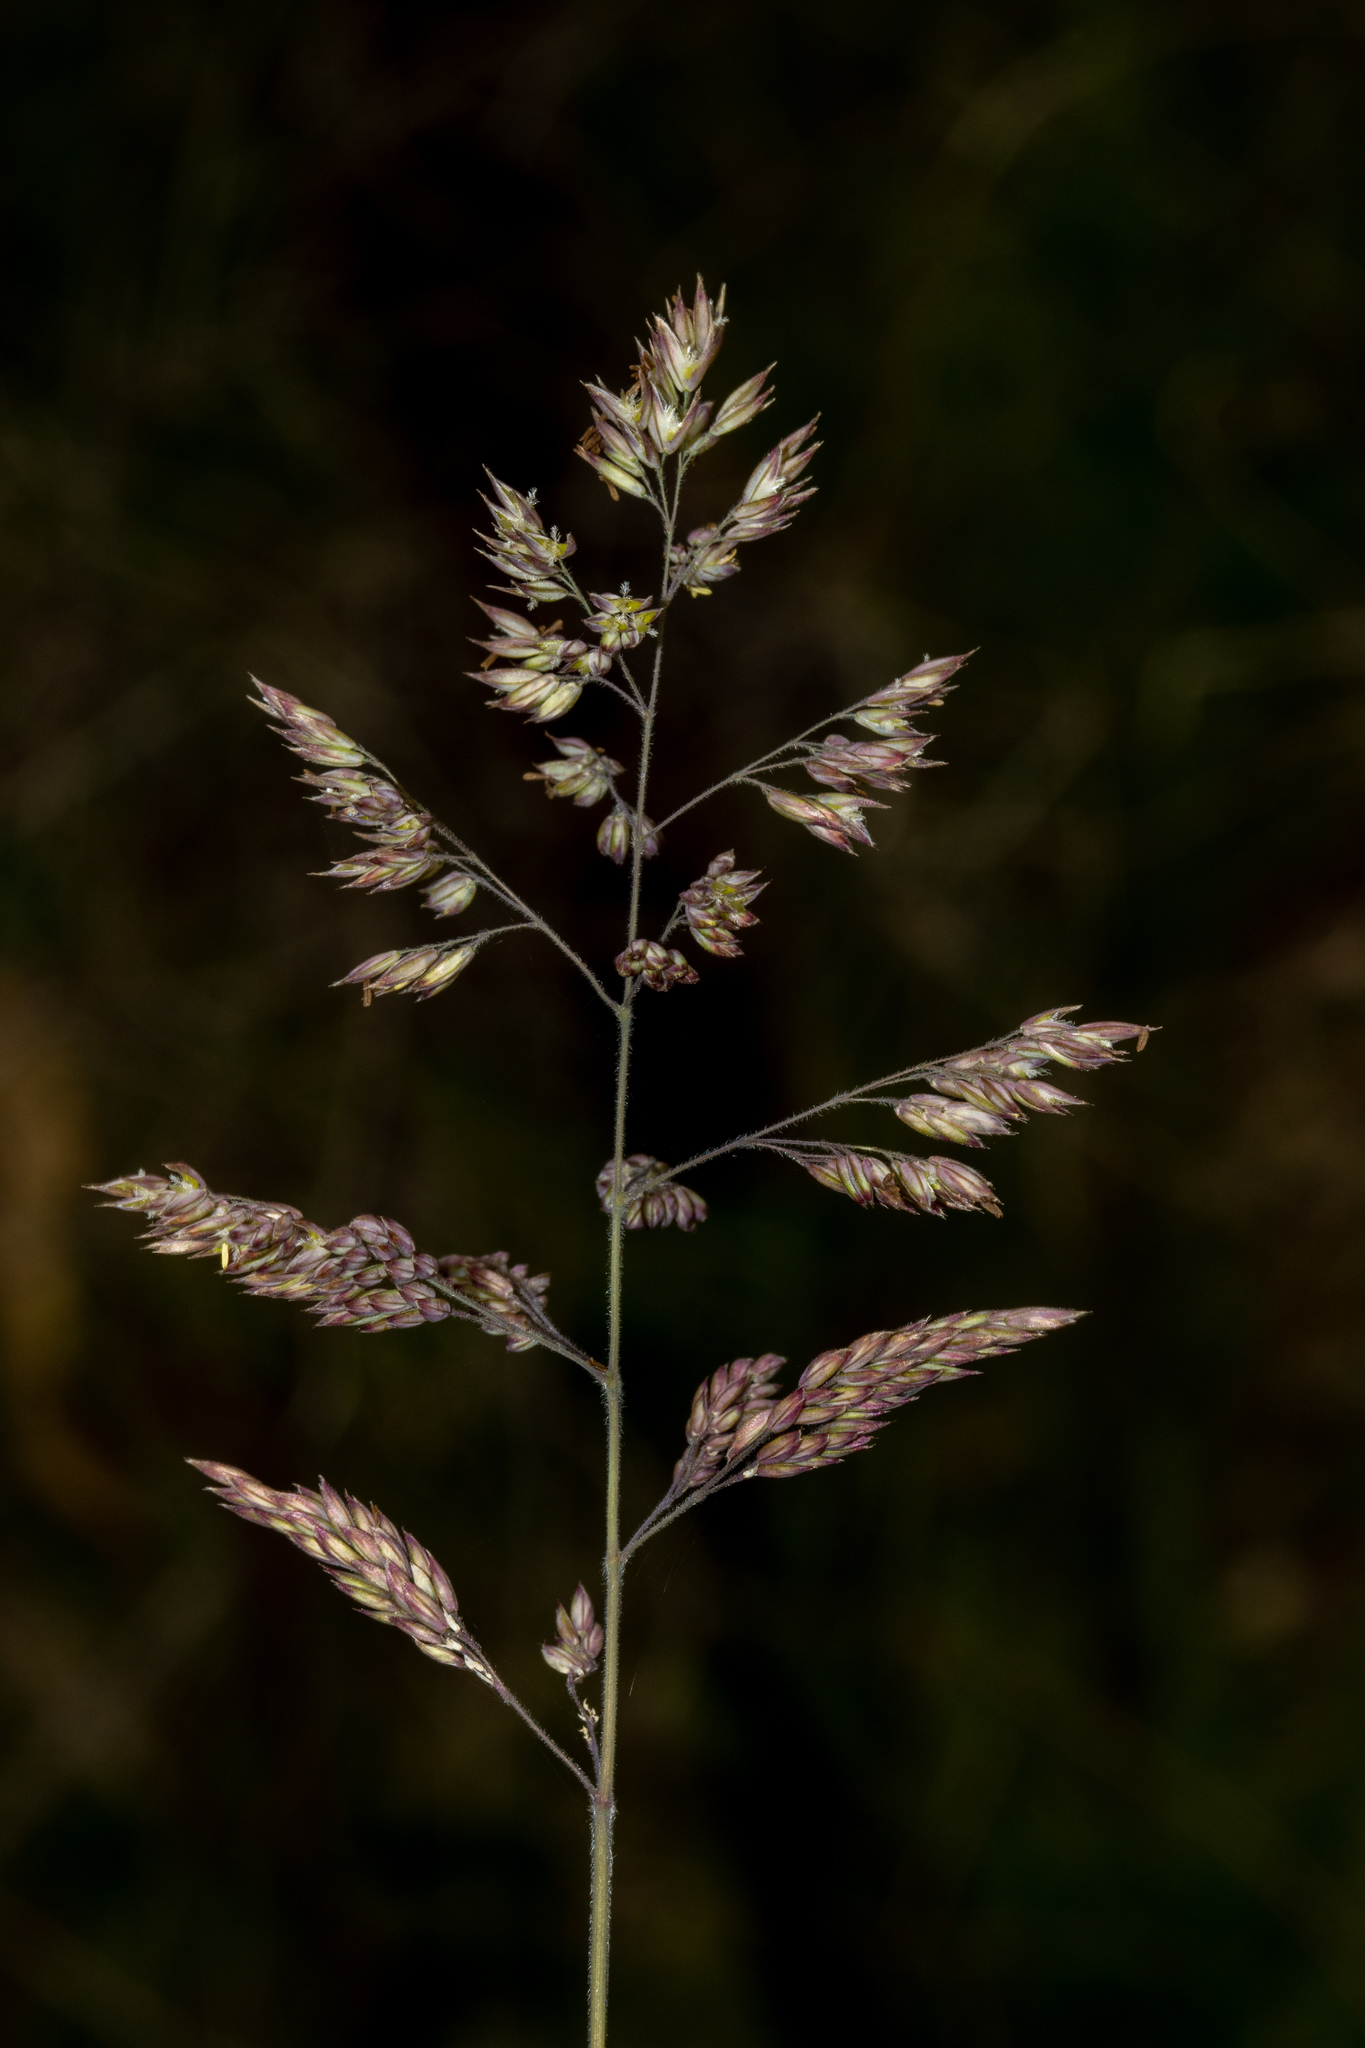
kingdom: Plantae
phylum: Tracheophyta
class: Liliopsida
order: Poales
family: Poaceae
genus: Holcus
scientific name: Holcus lanatus
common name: Yorkshire-fog
